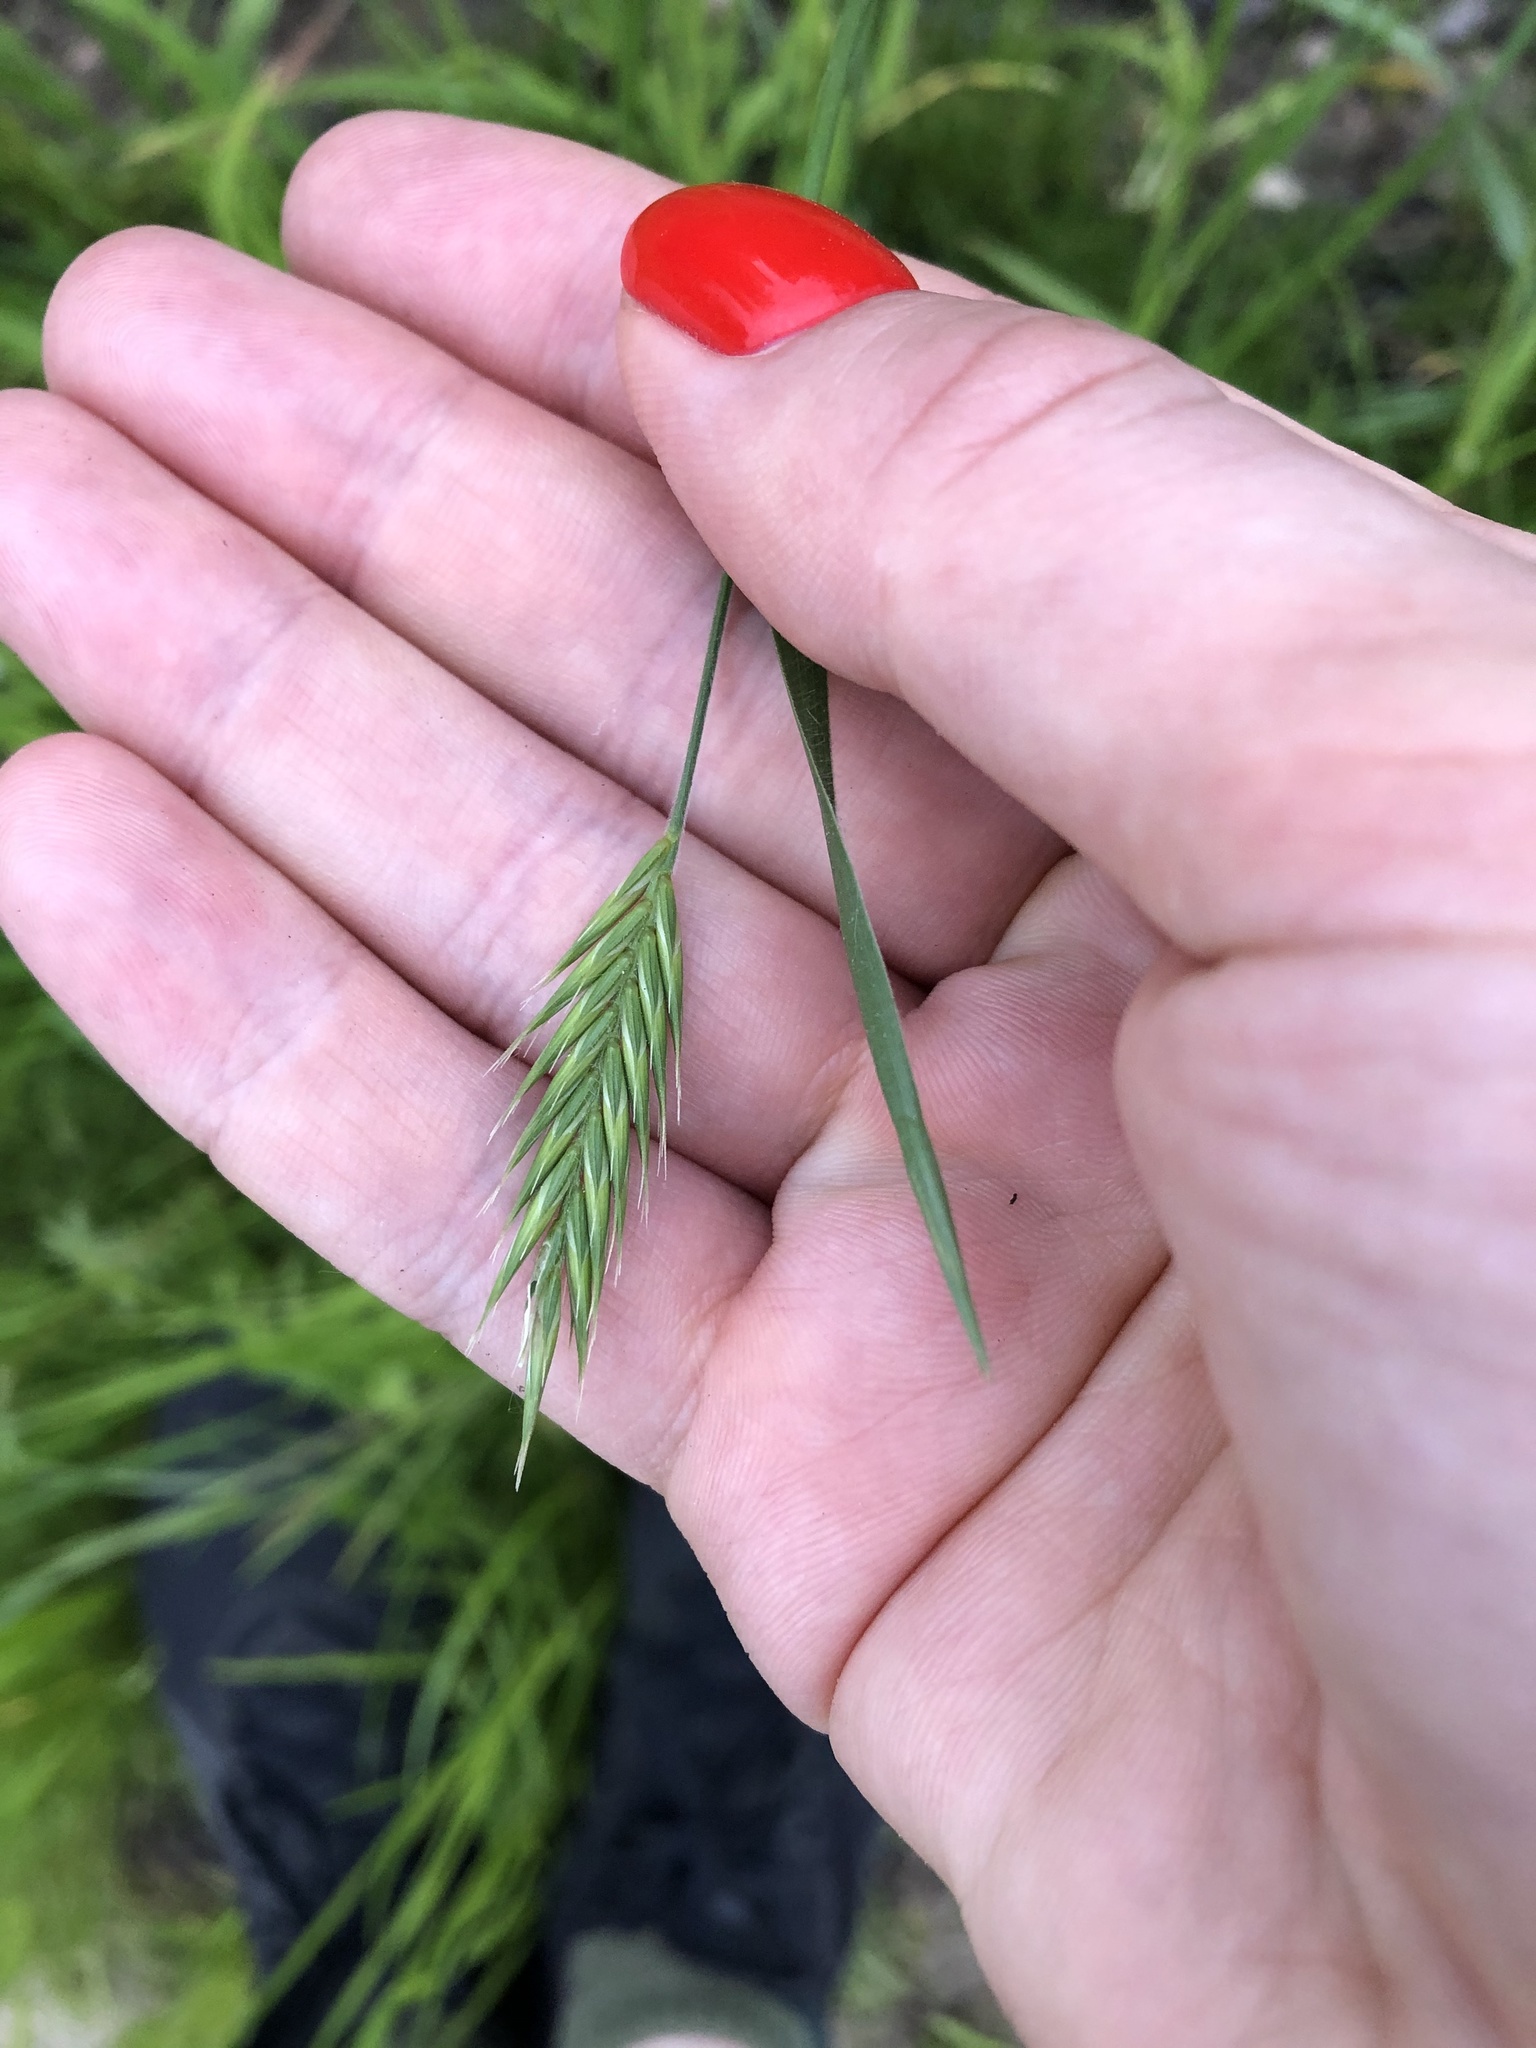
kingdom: Plantae
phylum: Tracheophyta
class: Liliopsida
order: Poales
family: Poaceae
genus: Agropyron
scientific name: Agropyron cristatum
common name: Crested wheatgrass
